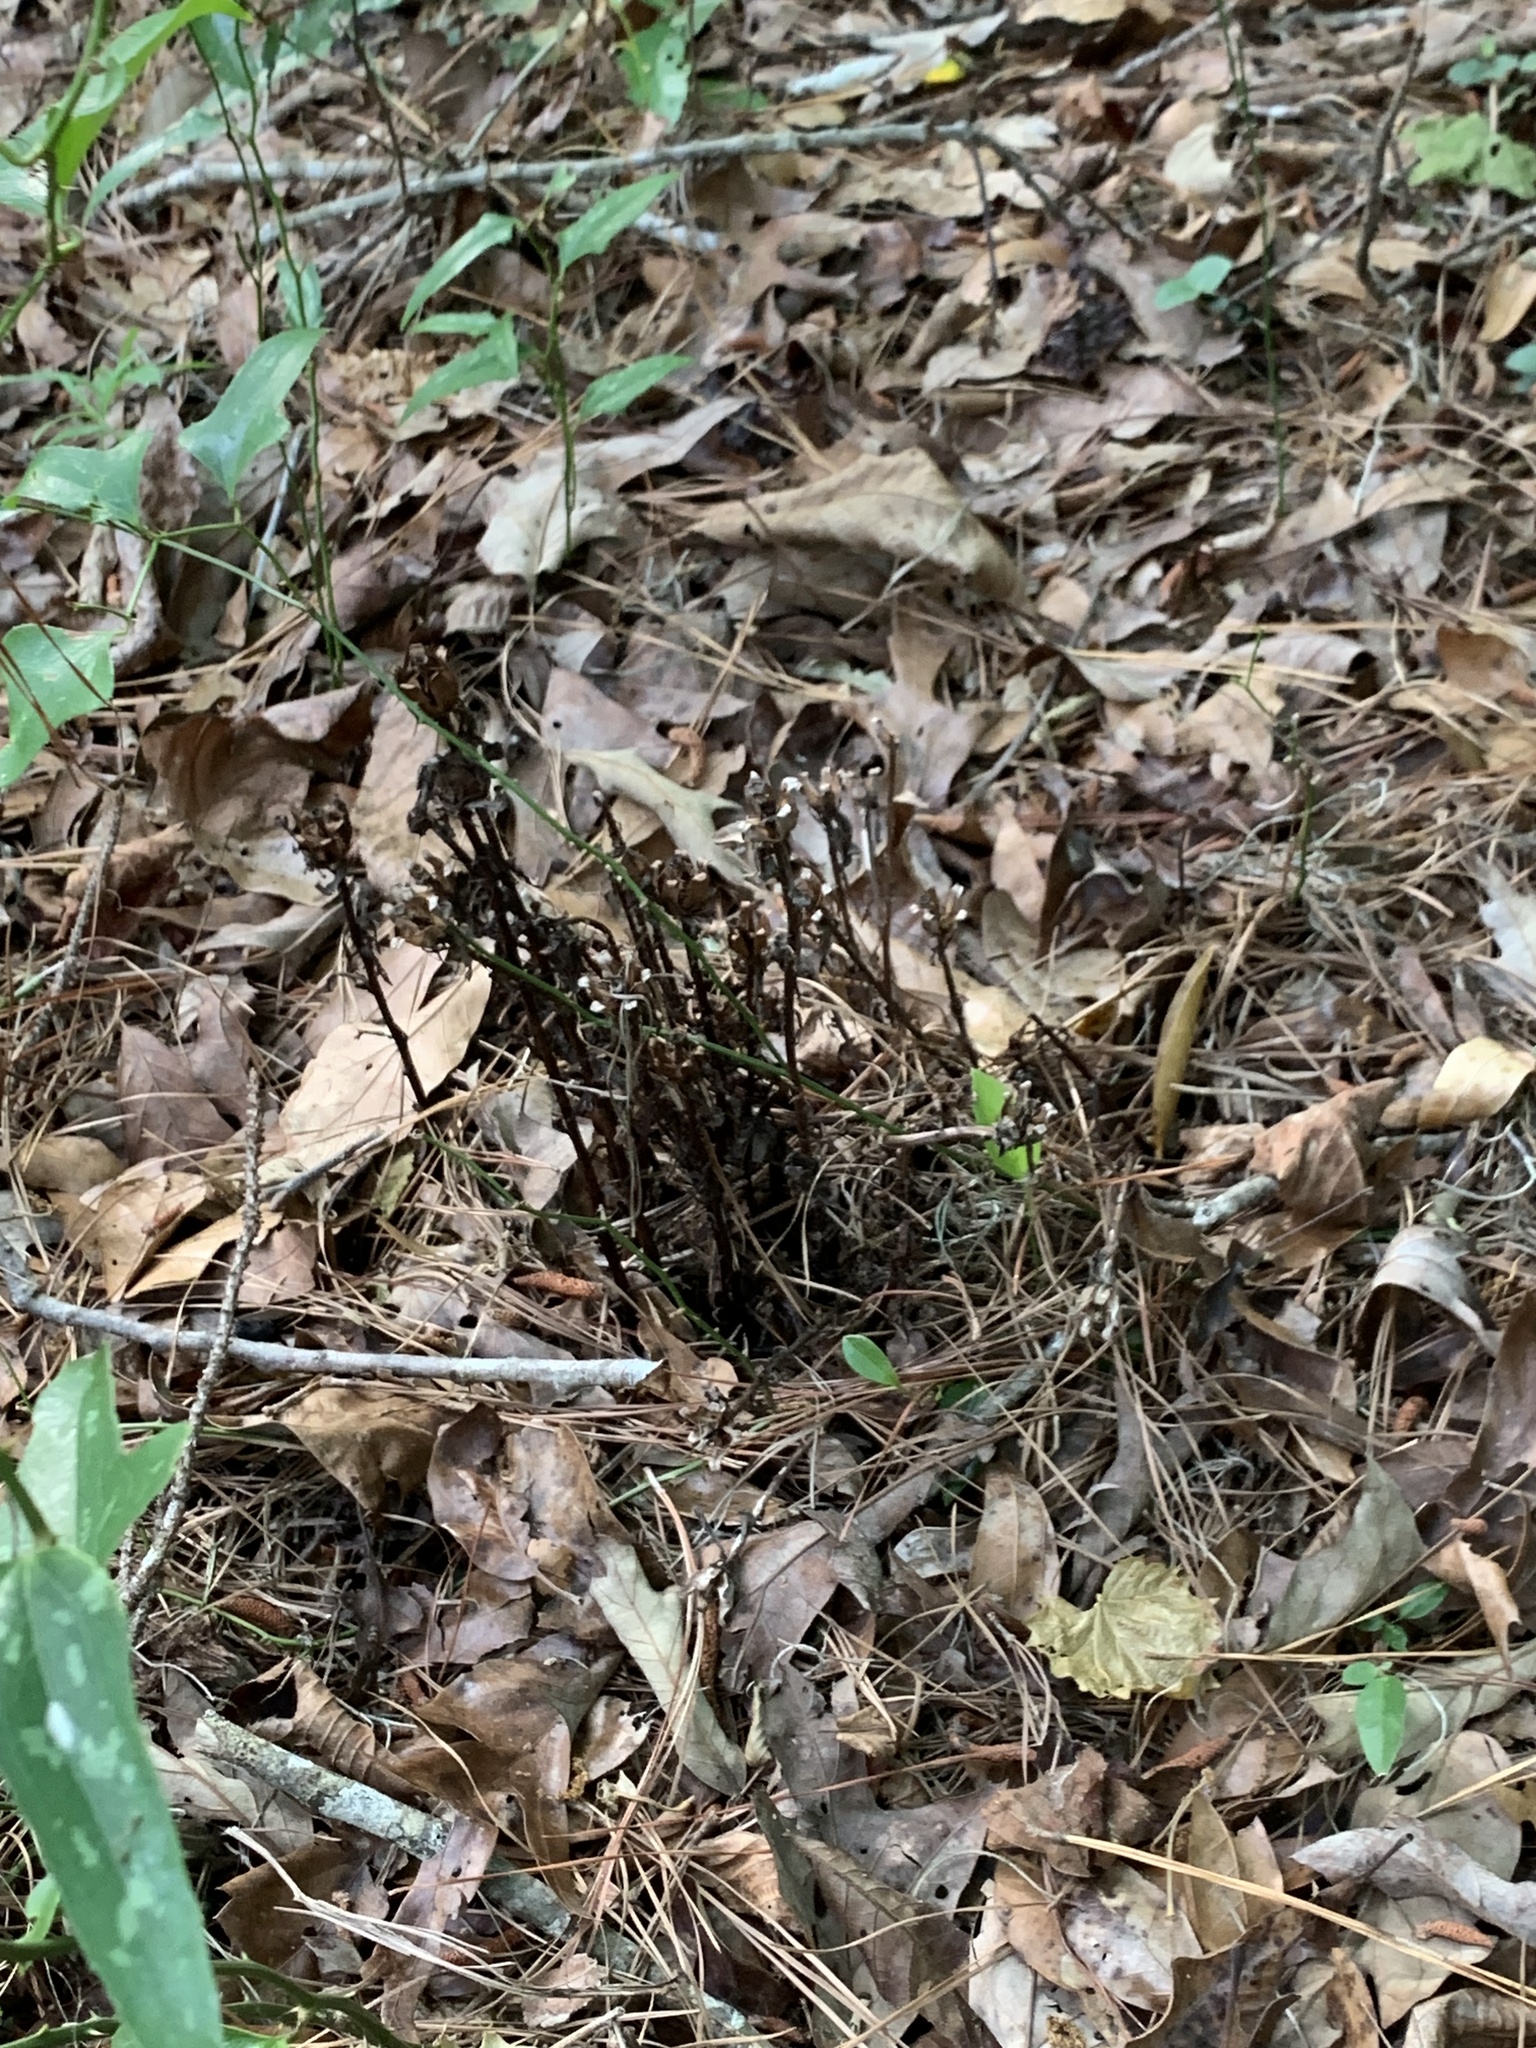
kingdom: Plantae
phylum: Tracheophyta
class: Magnoliopsida
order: Ericales
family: Ericaceae
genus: Monotropa
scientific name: Monotropa uniflora
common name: Convulsion root
